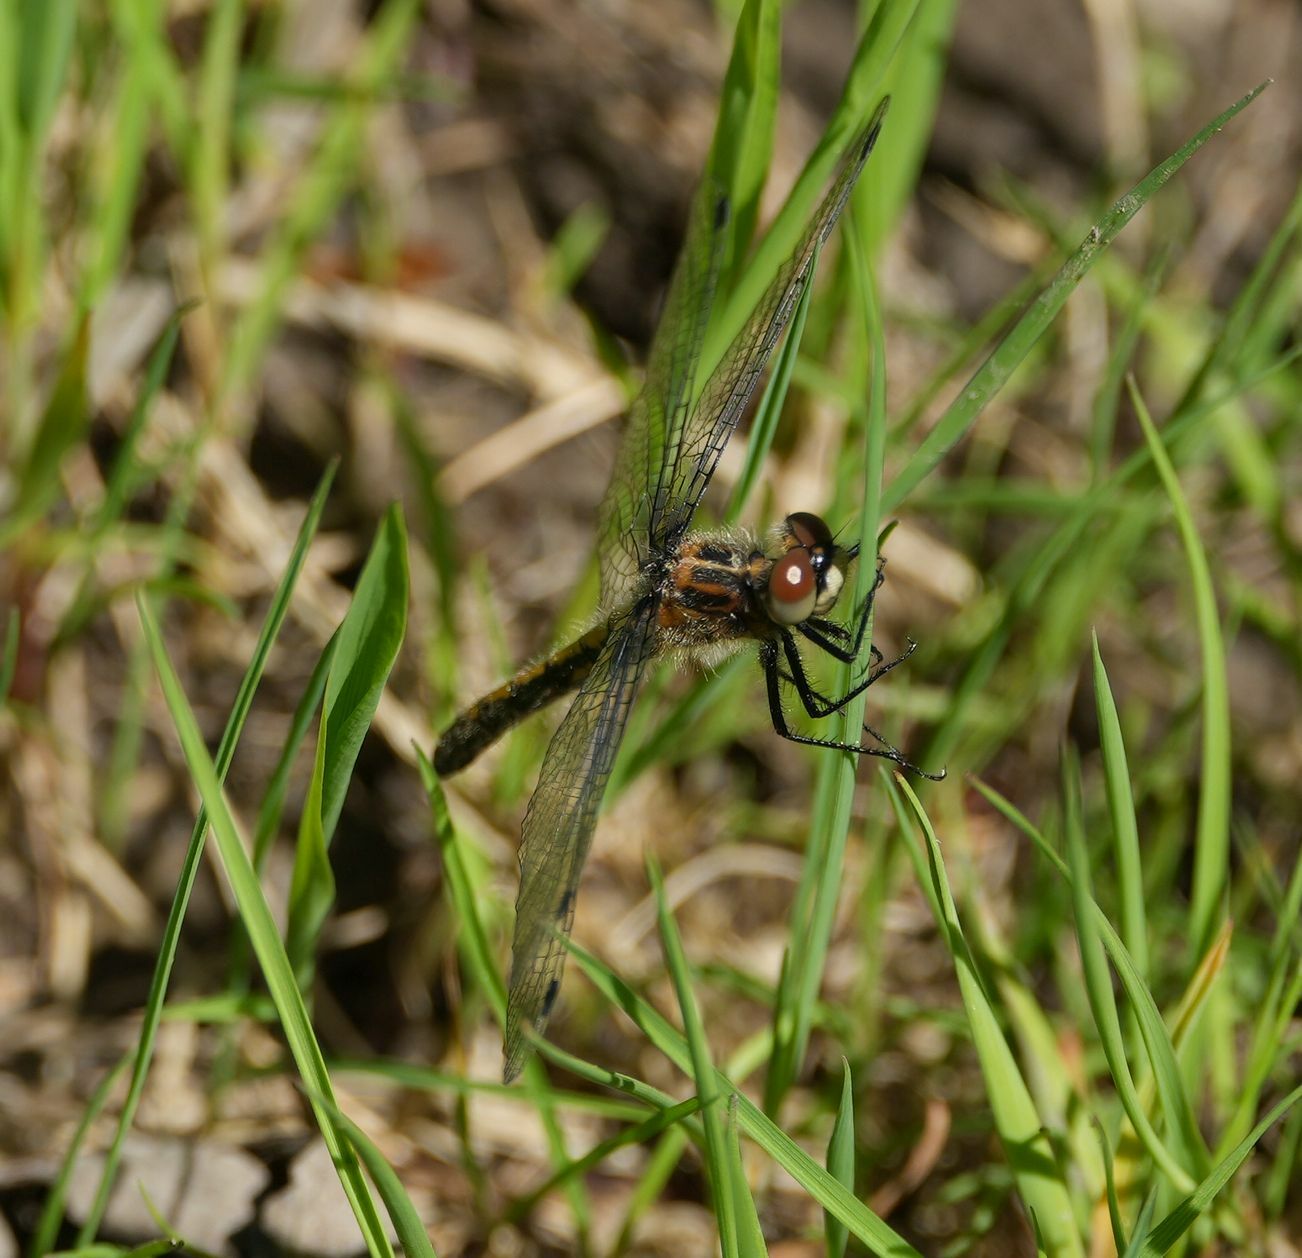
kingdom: Animalia
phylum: Arthropoda
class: Insecta
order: Odonata
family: Libellulidae
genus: Leucorrhinia
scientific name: Leucorrhinia intacta
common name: Dot-tailed whiteface
